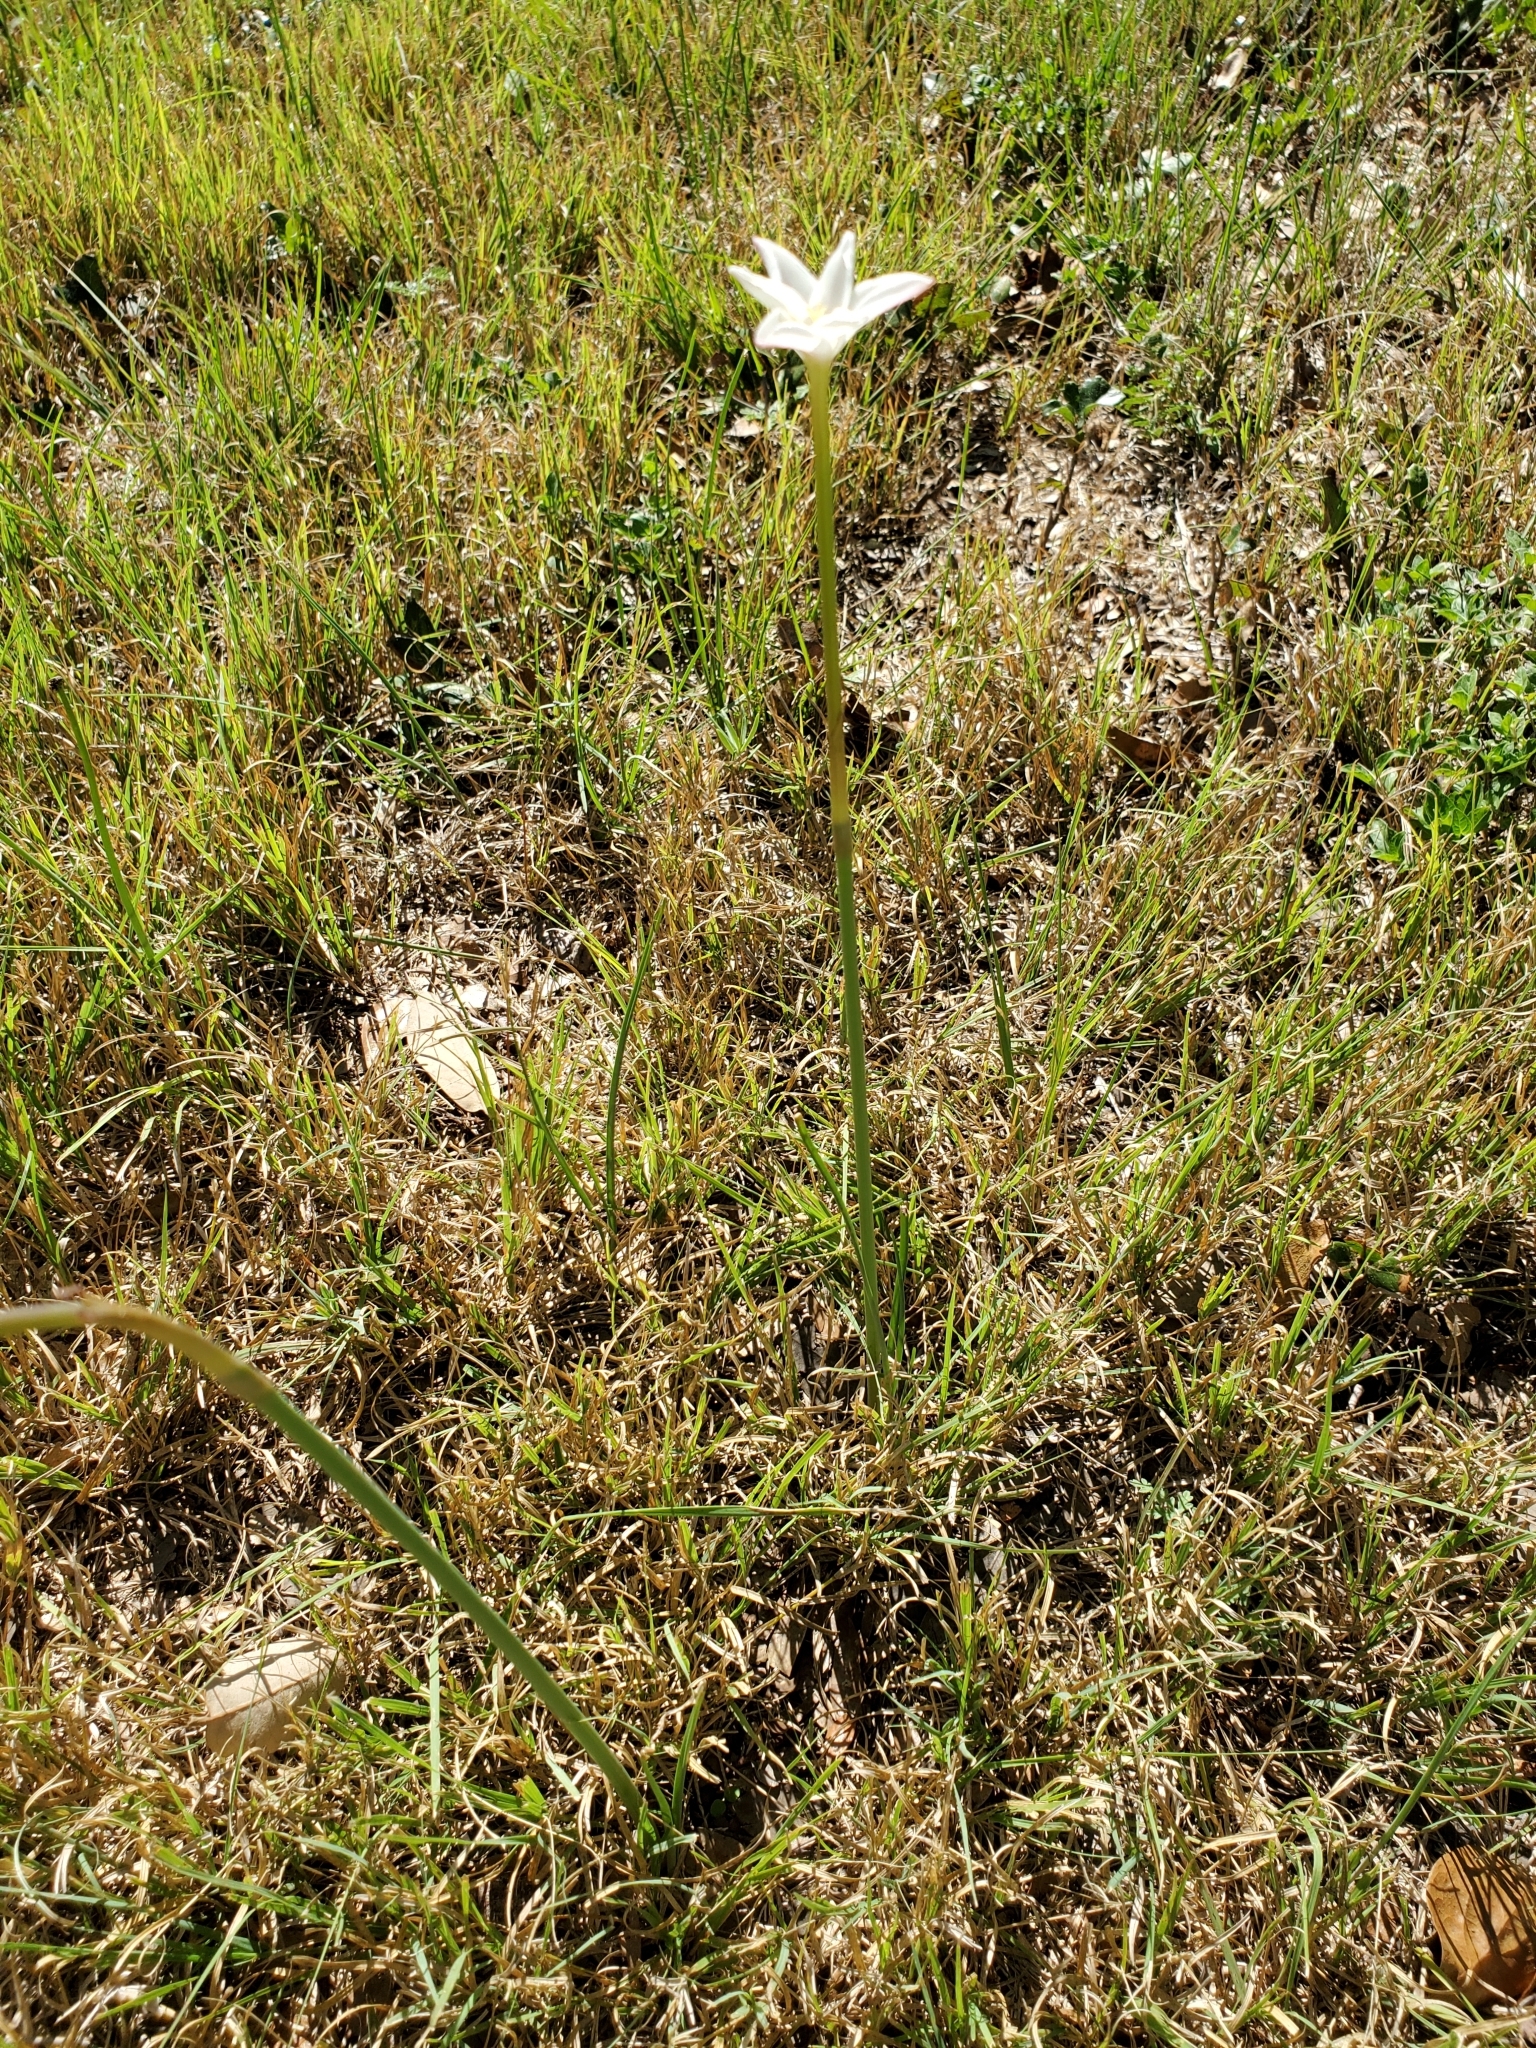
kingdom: Plantae
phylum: Tracheophyta
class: Liliopsida
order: Asparagales
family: Amaryllidaceae
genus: Zephyranthes
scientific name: Zephyranthes chlorosolen
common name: Evening rain-lily
